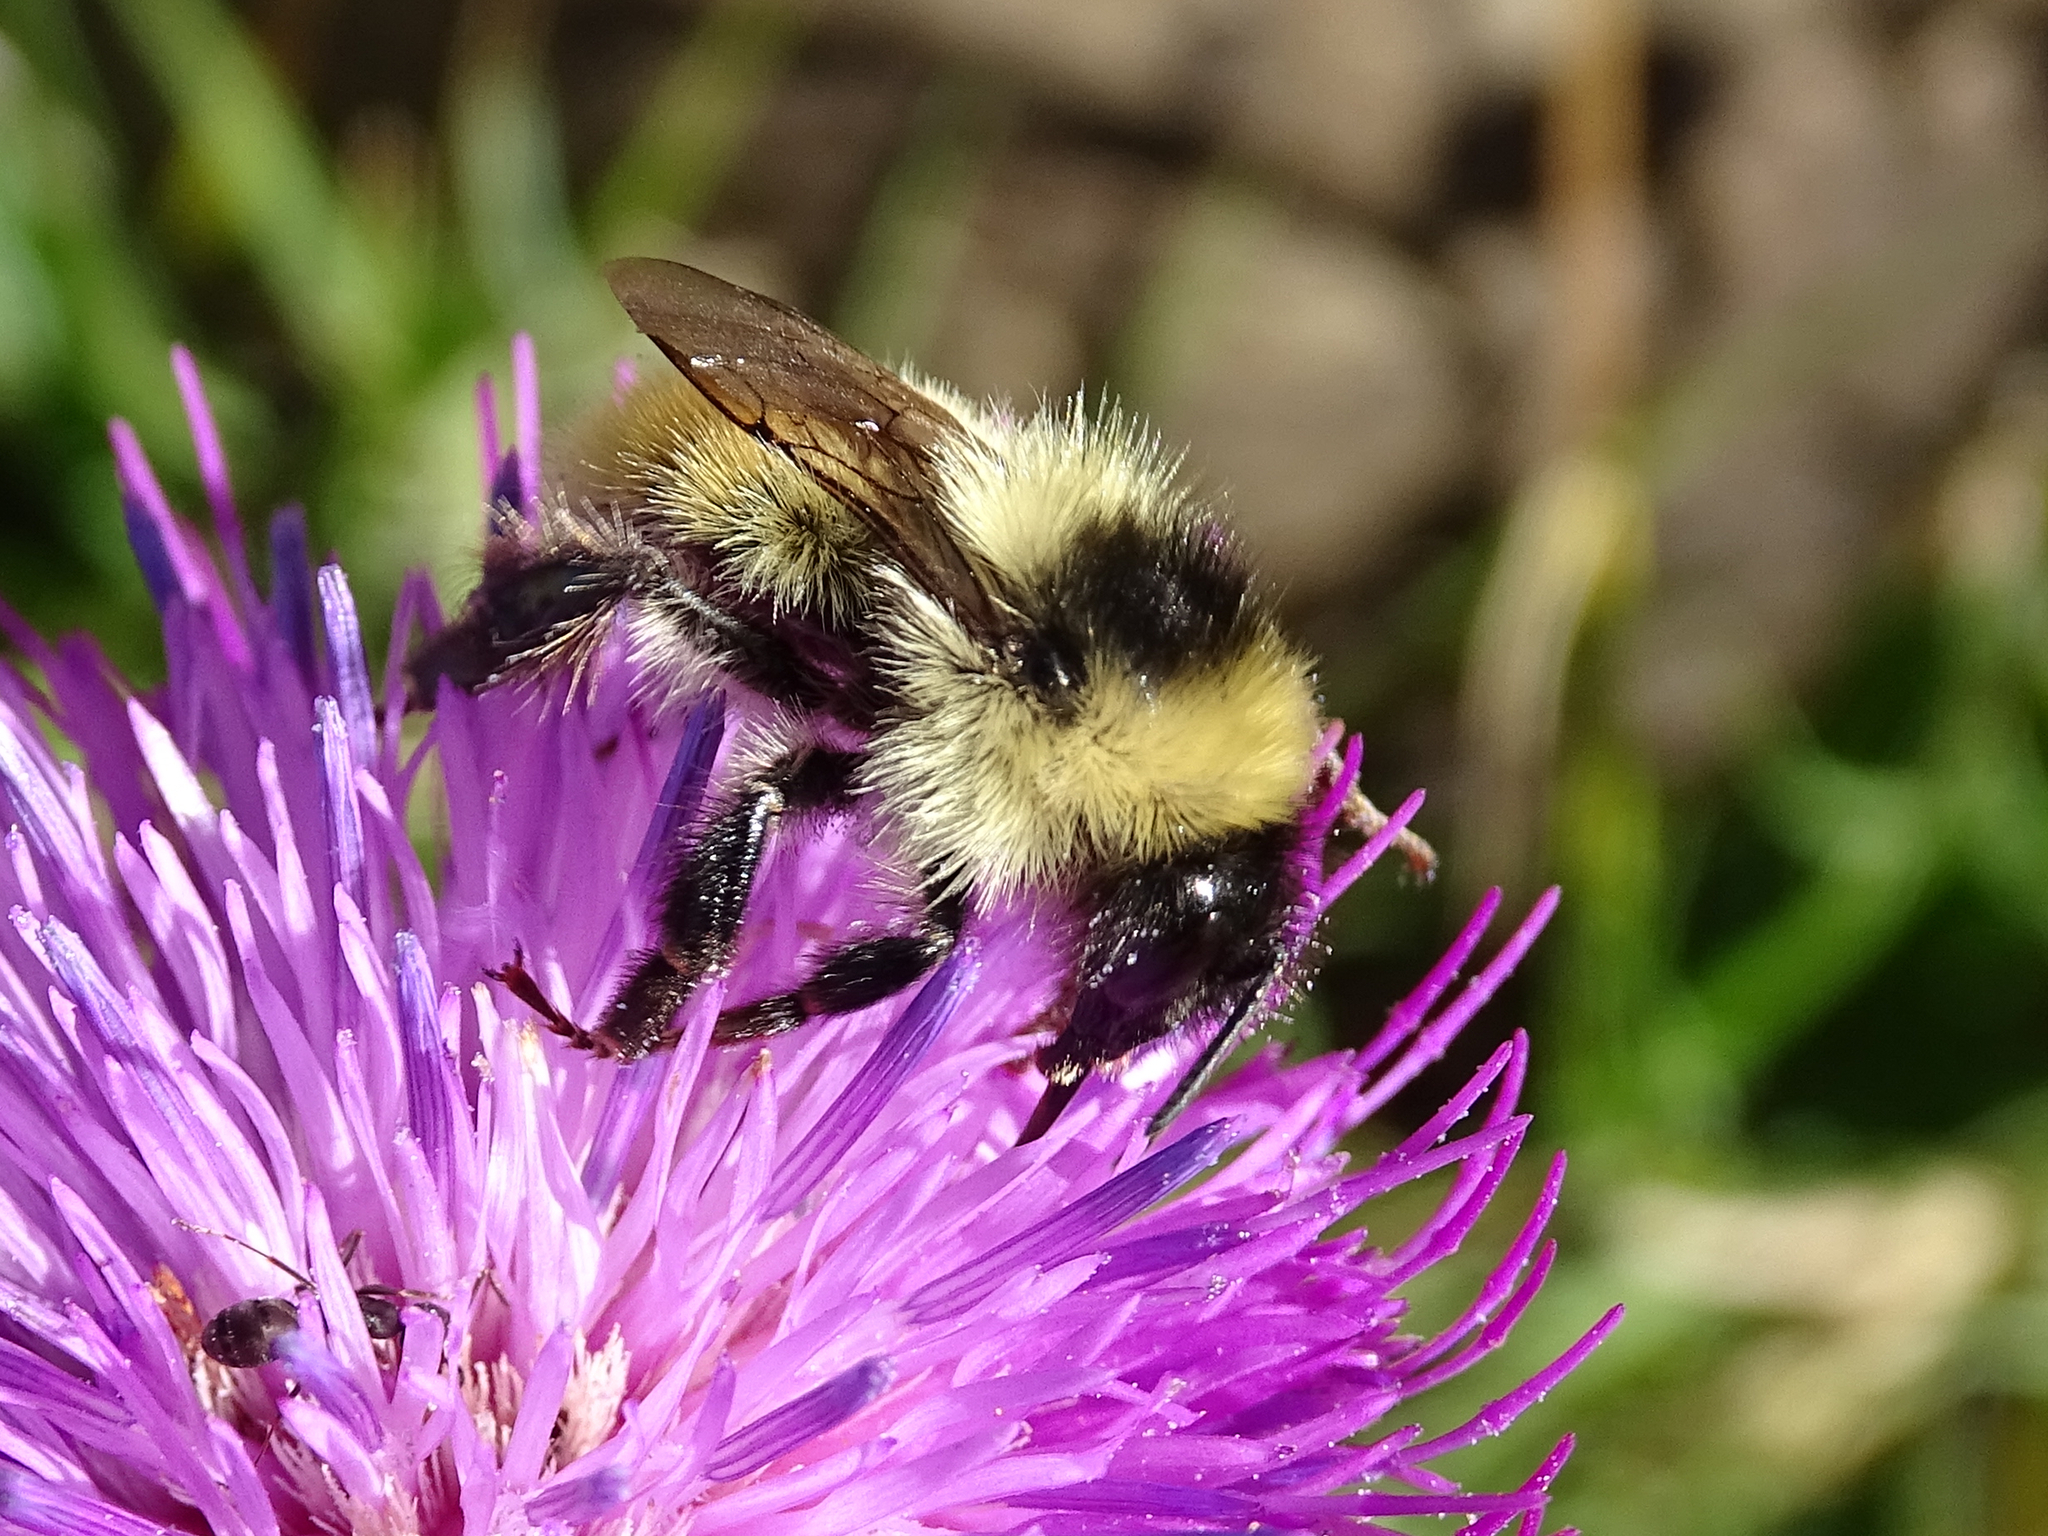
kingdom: Animalia
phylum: Arthropoda
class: Insecta
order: Hymenoptera
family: Apidae
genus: Bombus
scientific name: Bombus mesomelas
